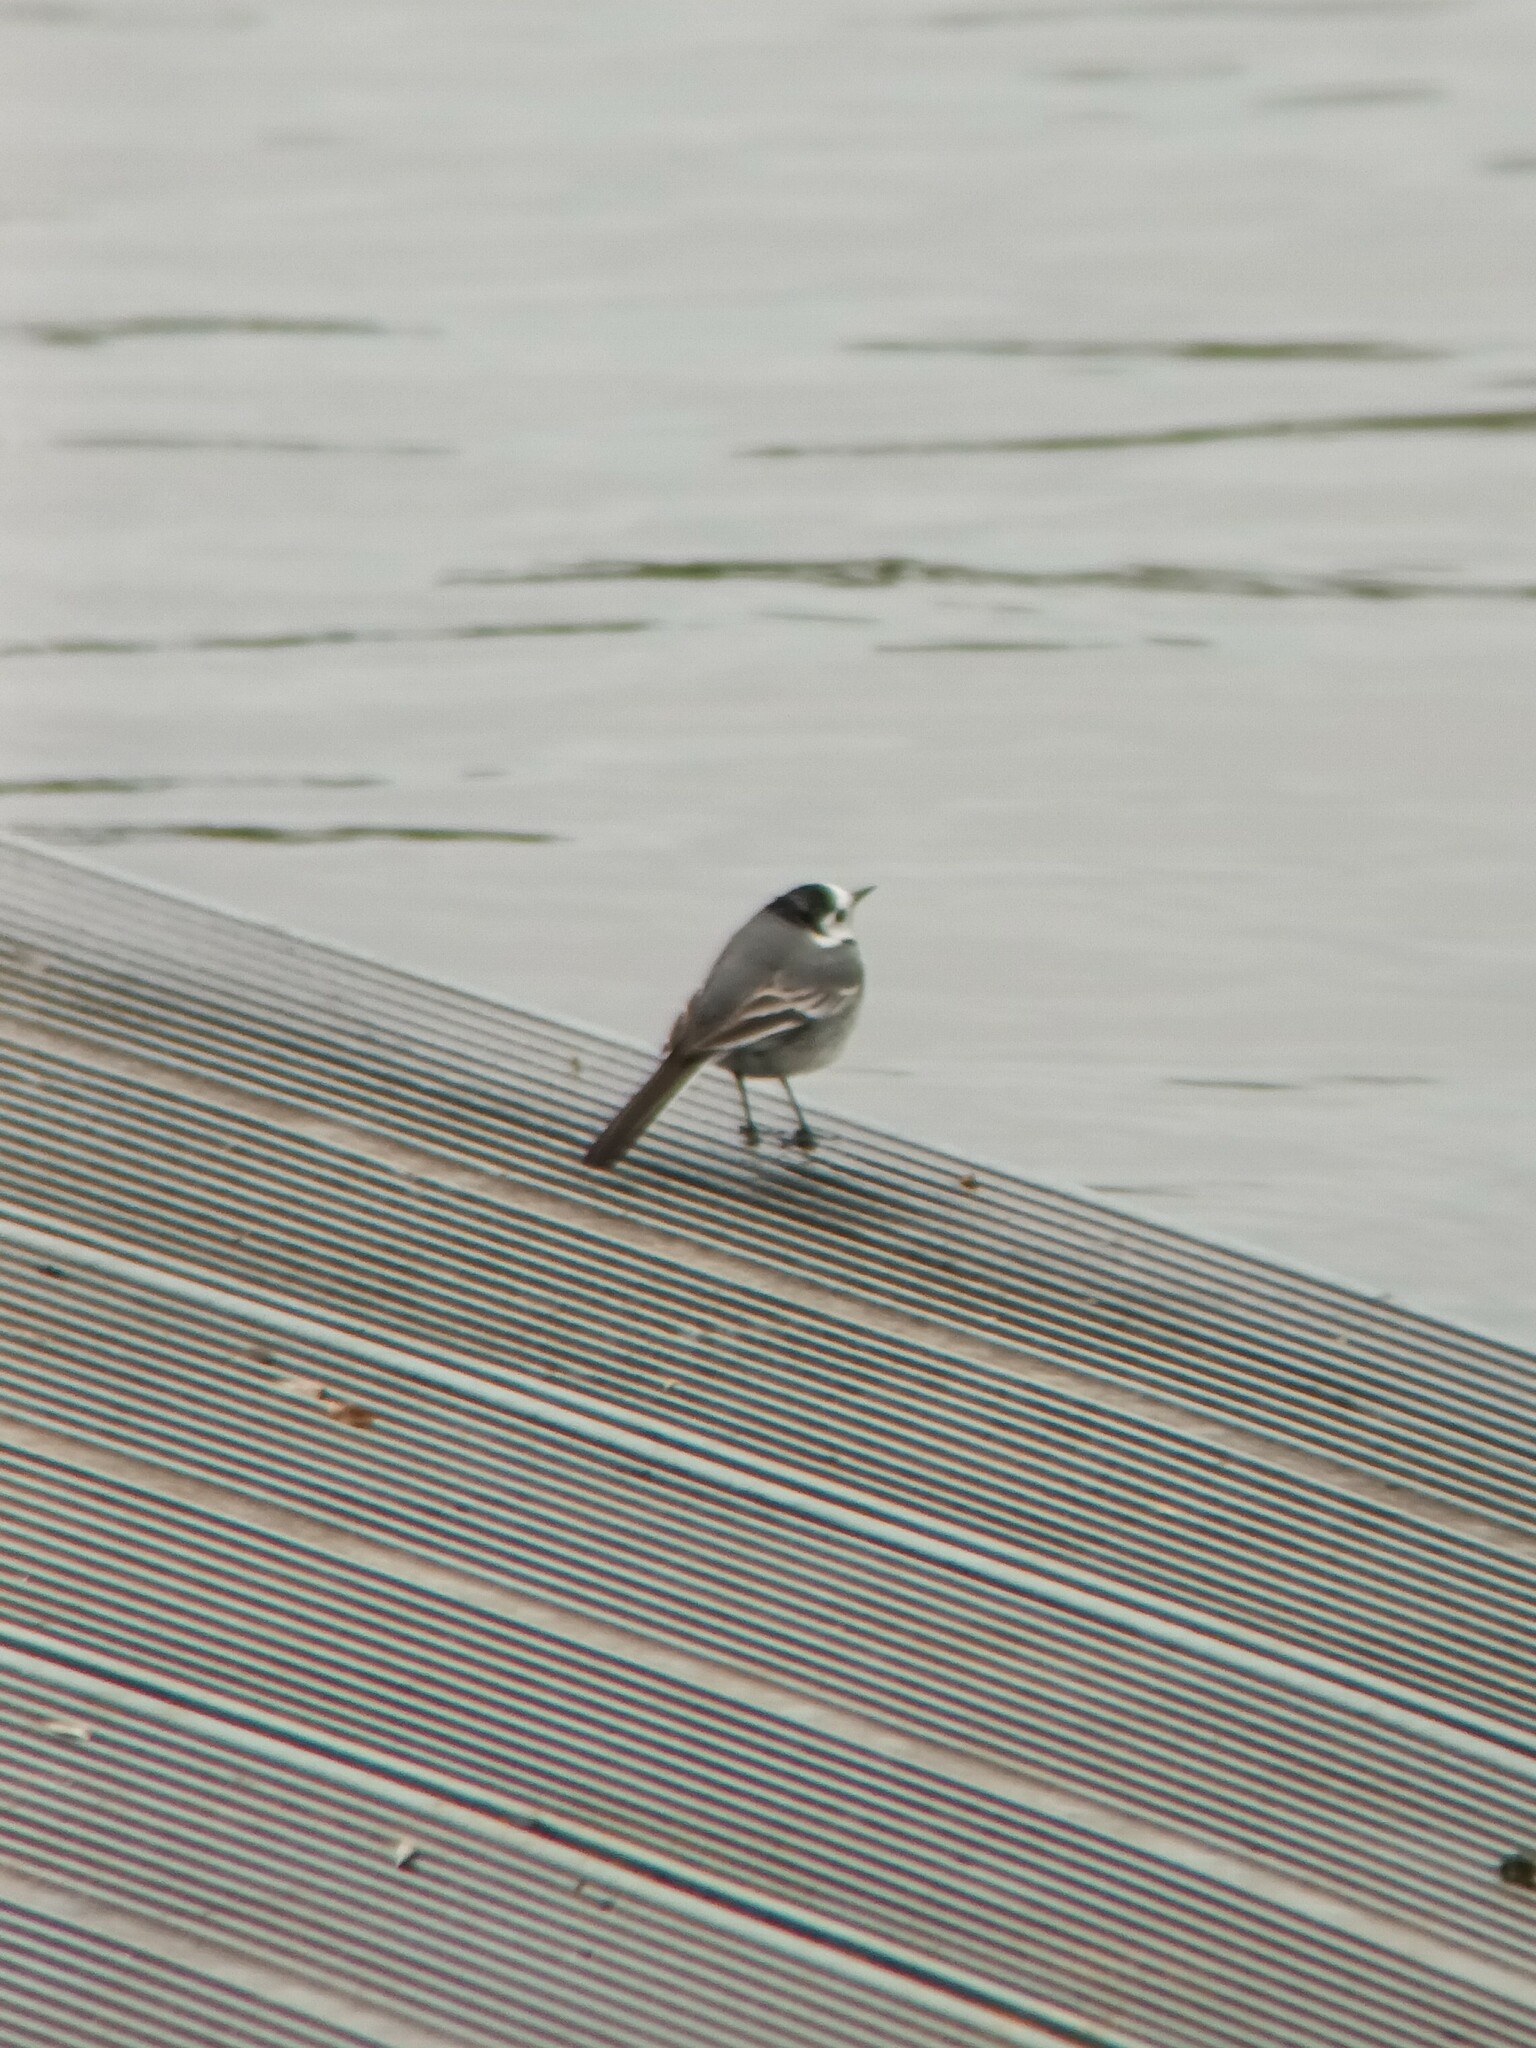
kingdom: Animalia
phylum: Chordata
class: Aves
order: Passeriformes
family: Motacillidae
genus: Motacilla
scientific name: Motacilla alba
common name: White wagtail
